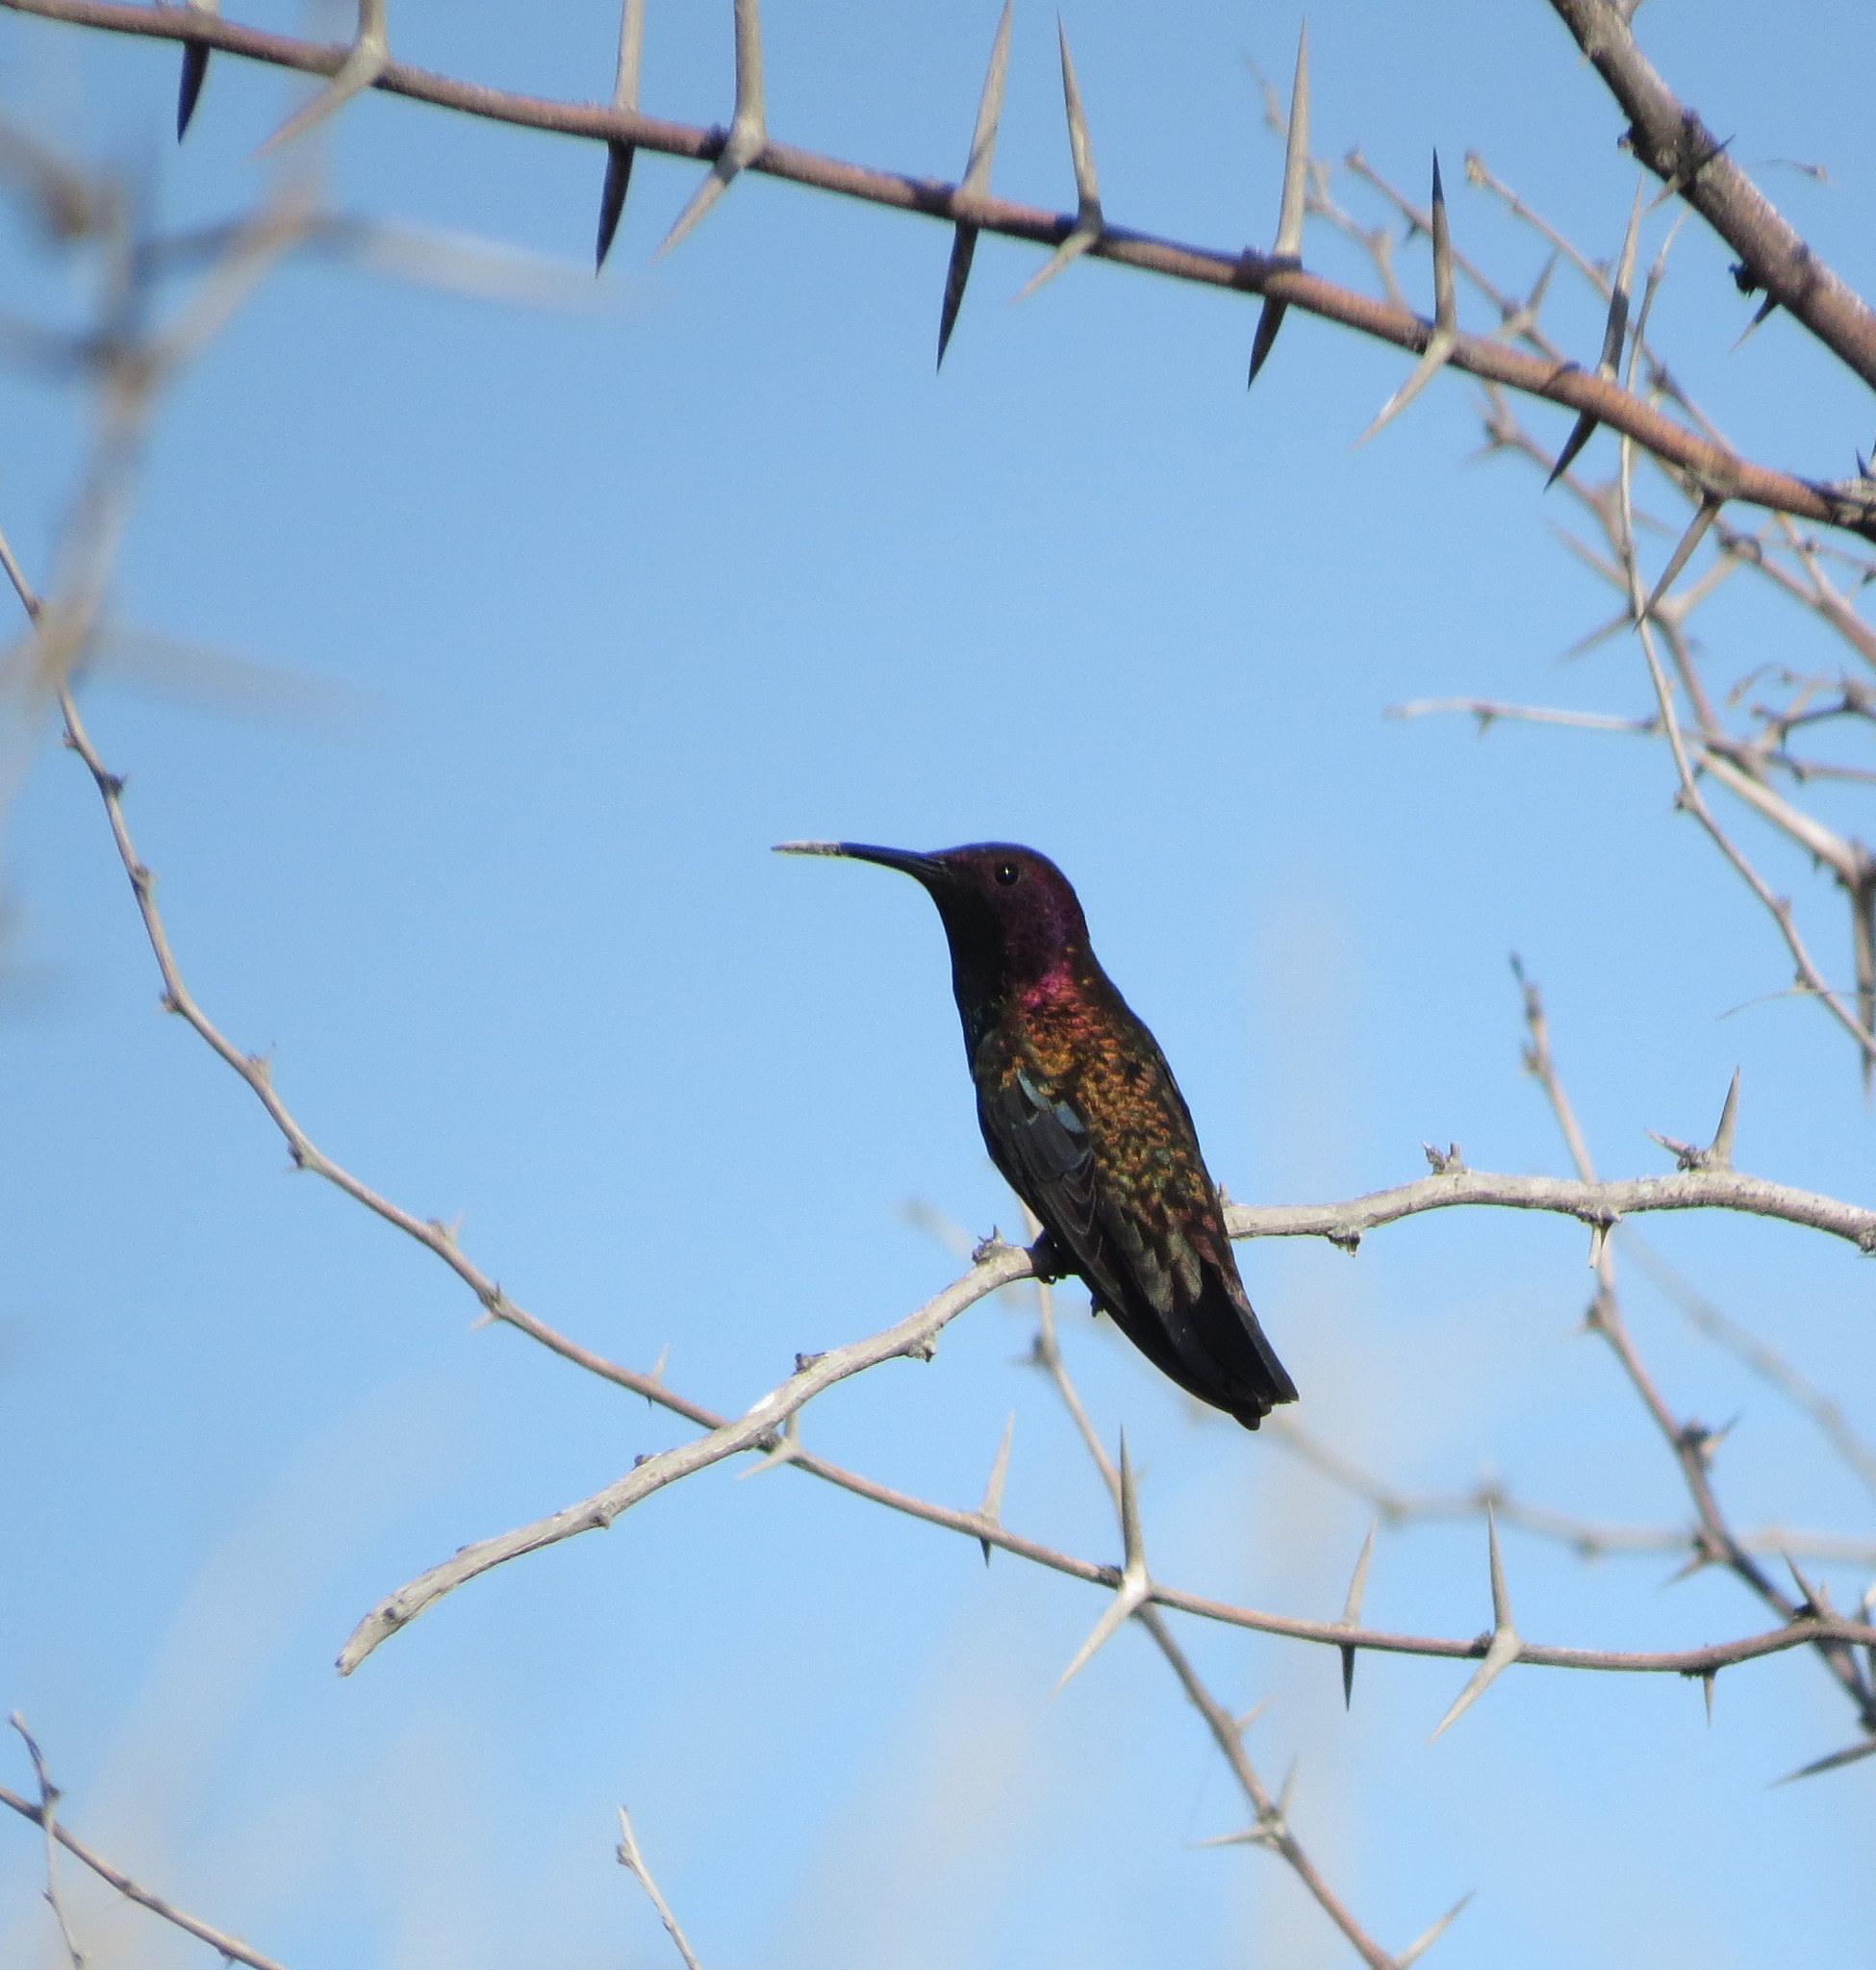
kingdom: Animalia
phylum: Chordata
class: Aves
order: Apodiformes
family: Trochilidae
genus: Anthracothorax
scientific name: Anthracothorax mango
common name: Jamaican mango
